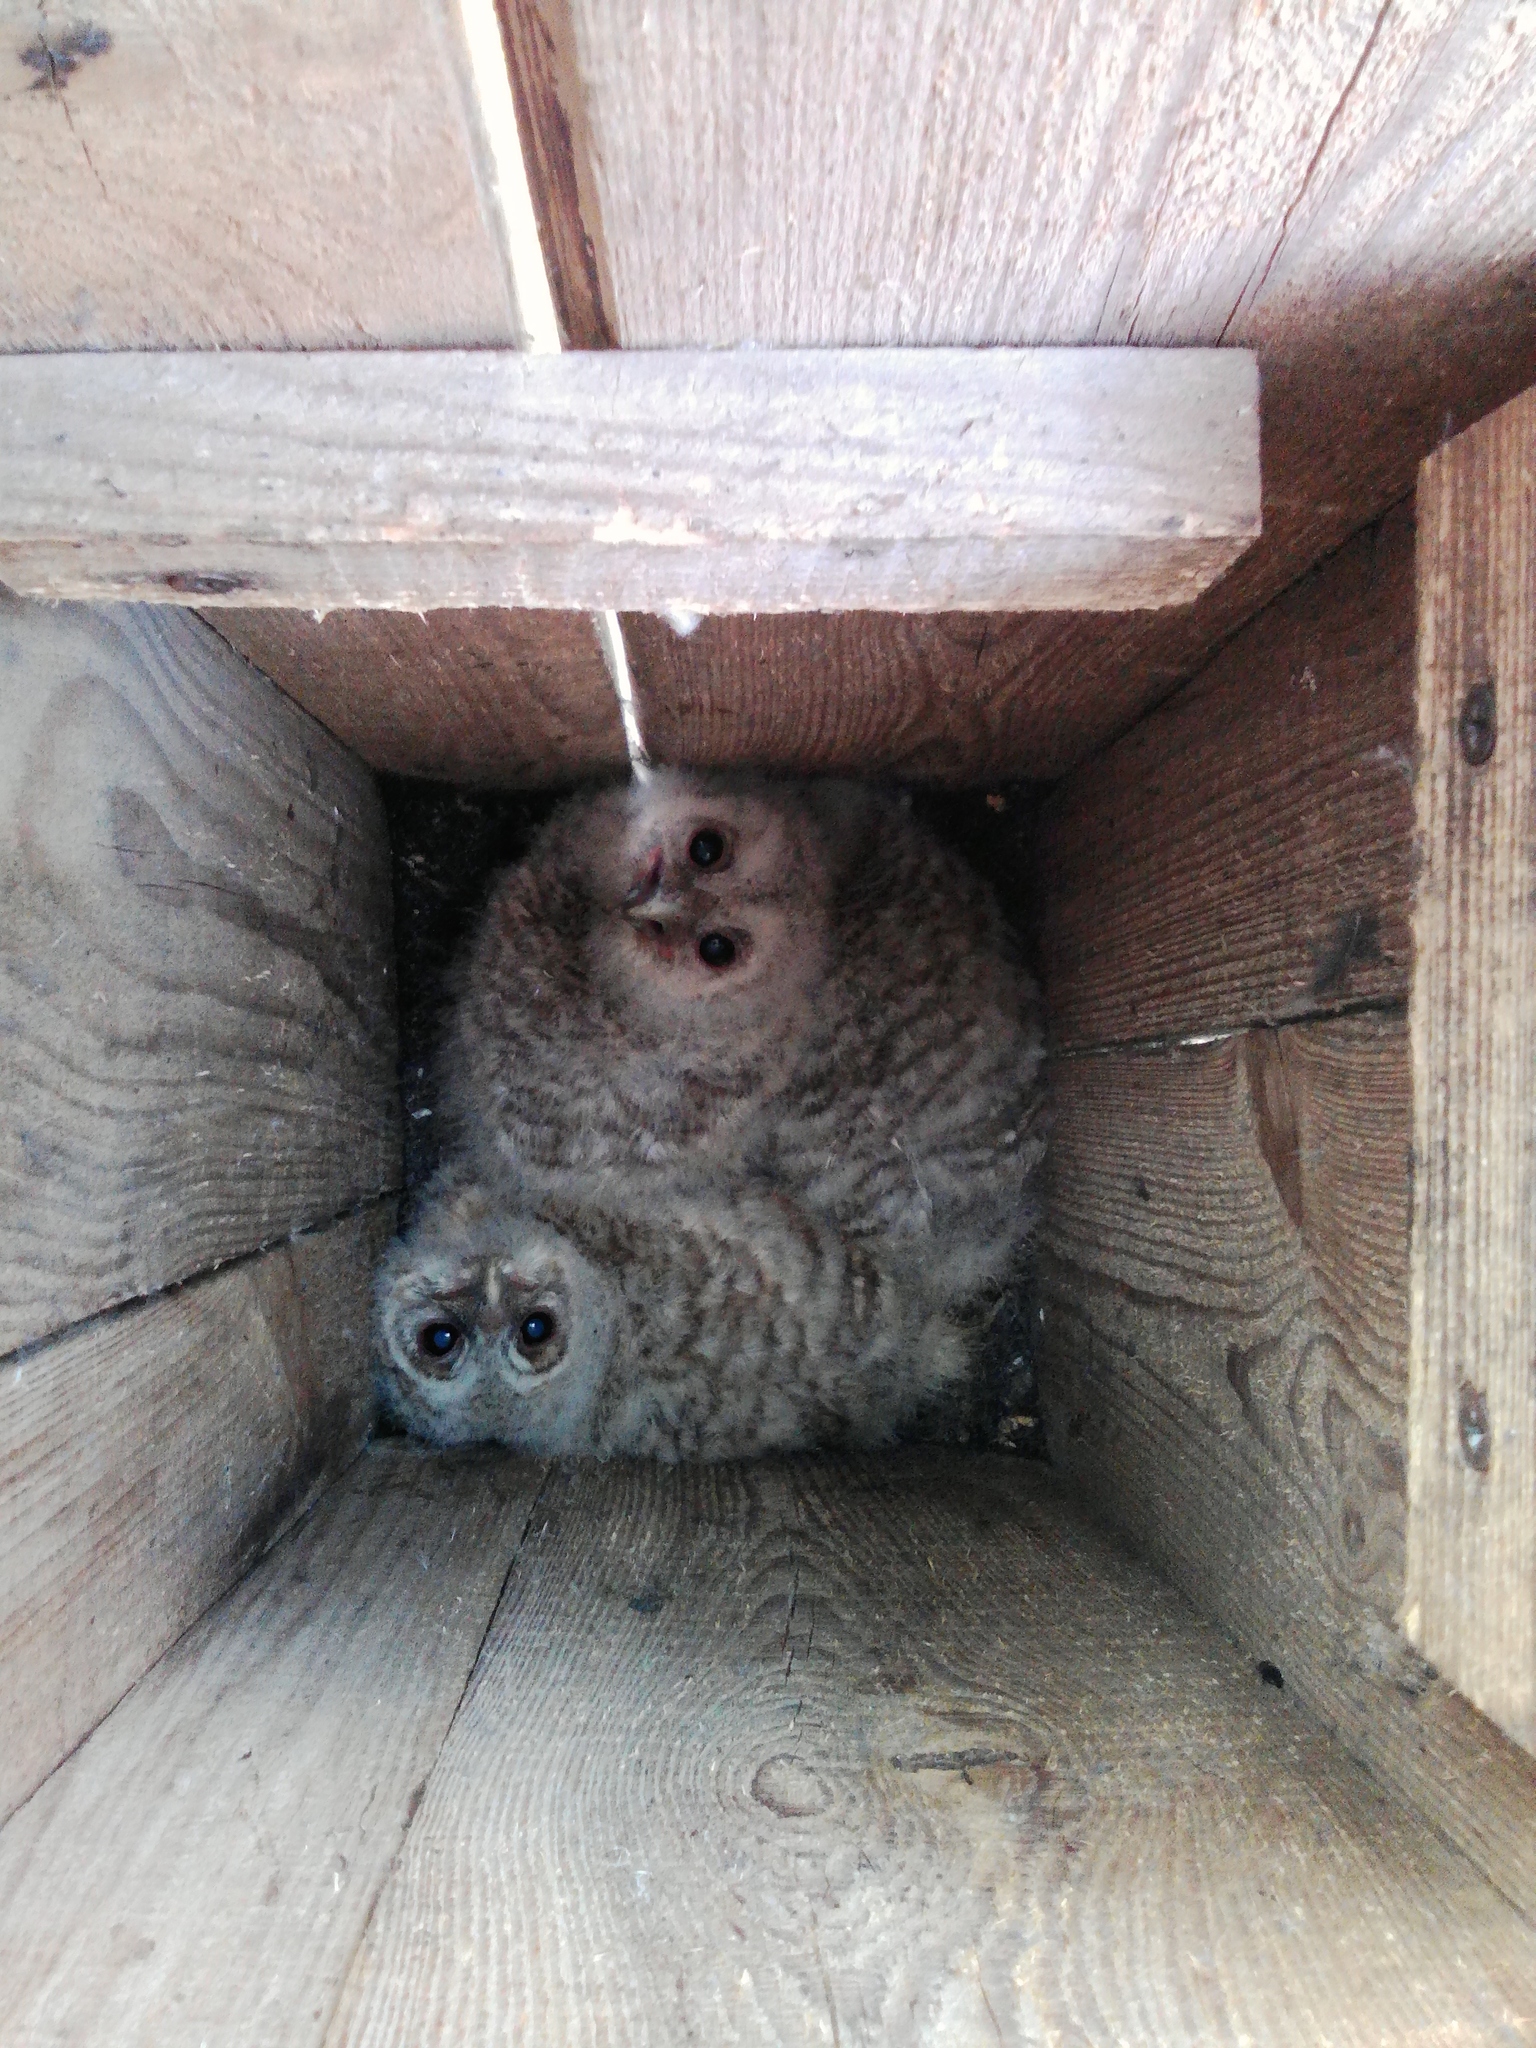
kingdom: Animalia
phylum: Chordata
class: Aves
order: Strigiformes
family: Strigidae
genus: Strix
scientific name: Strix aluco
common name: Tawny owl
